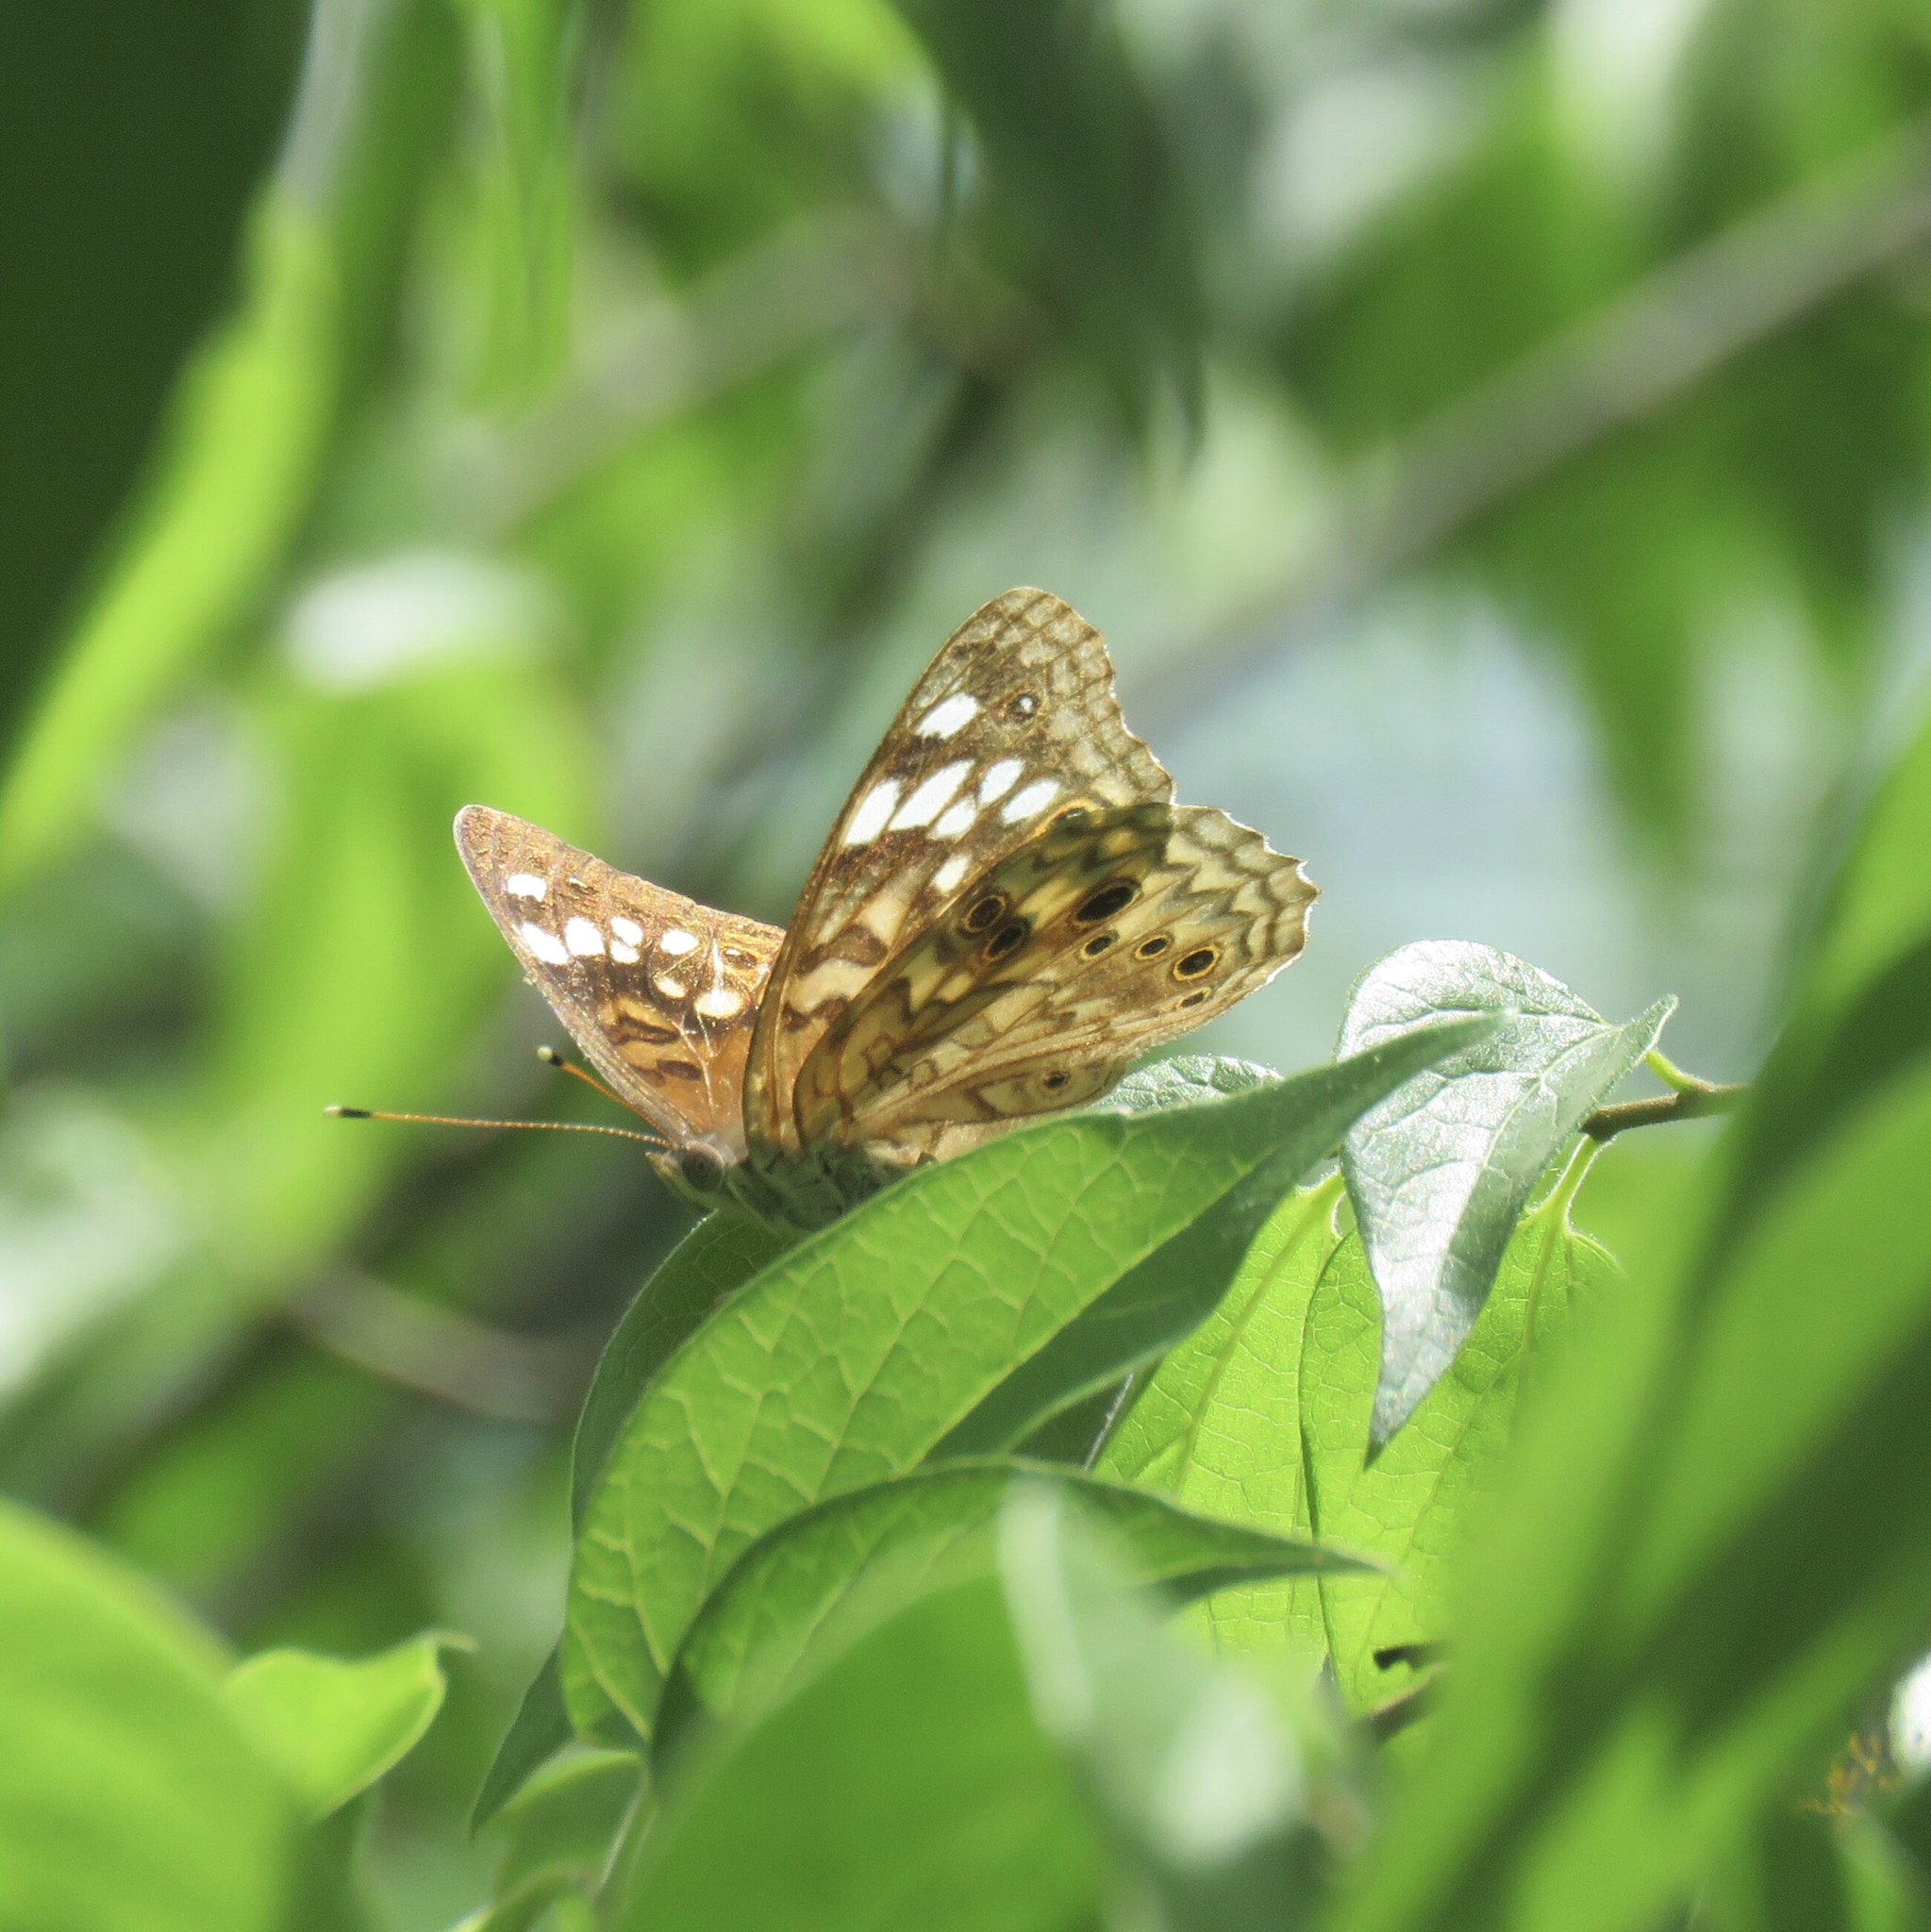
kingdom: Animalia
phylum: Arthropoda
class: Insecta
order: Lepidoptera
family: Nymphalidae
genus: Asterocampa
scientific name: Asterocampa celtis
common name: Hackberry emperor
